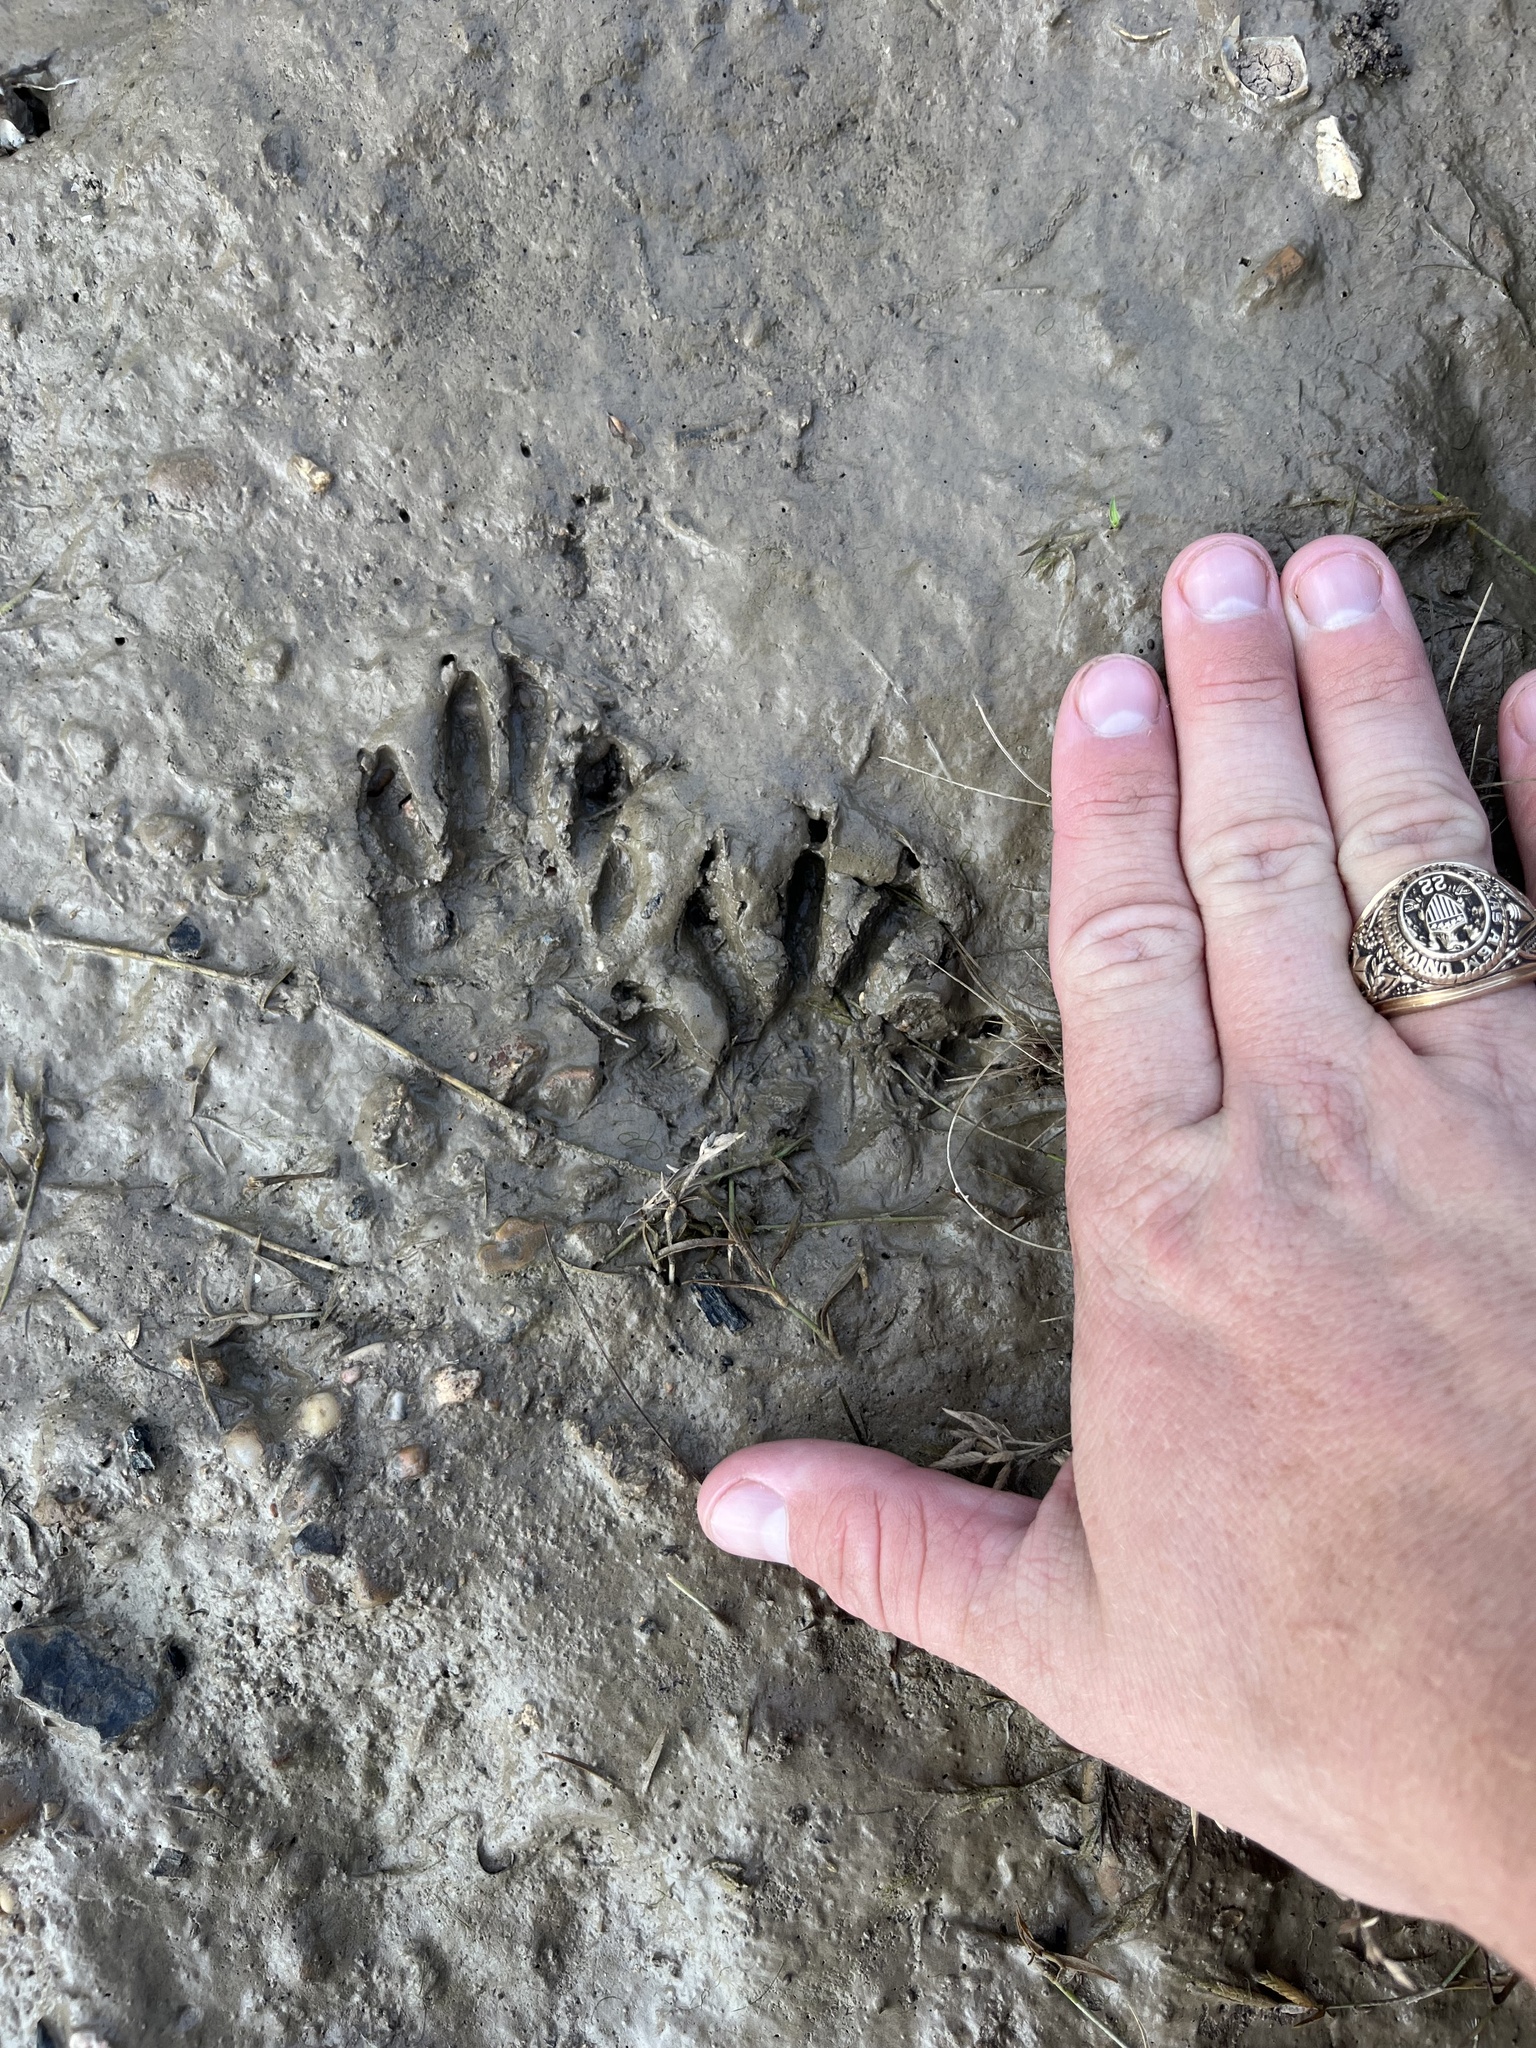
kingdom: Animalia
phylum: Chordata
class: Mammalia
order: Carnivora
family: Procyonidae
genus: Procyon
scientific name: Procyon lotor
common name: Raccoon
